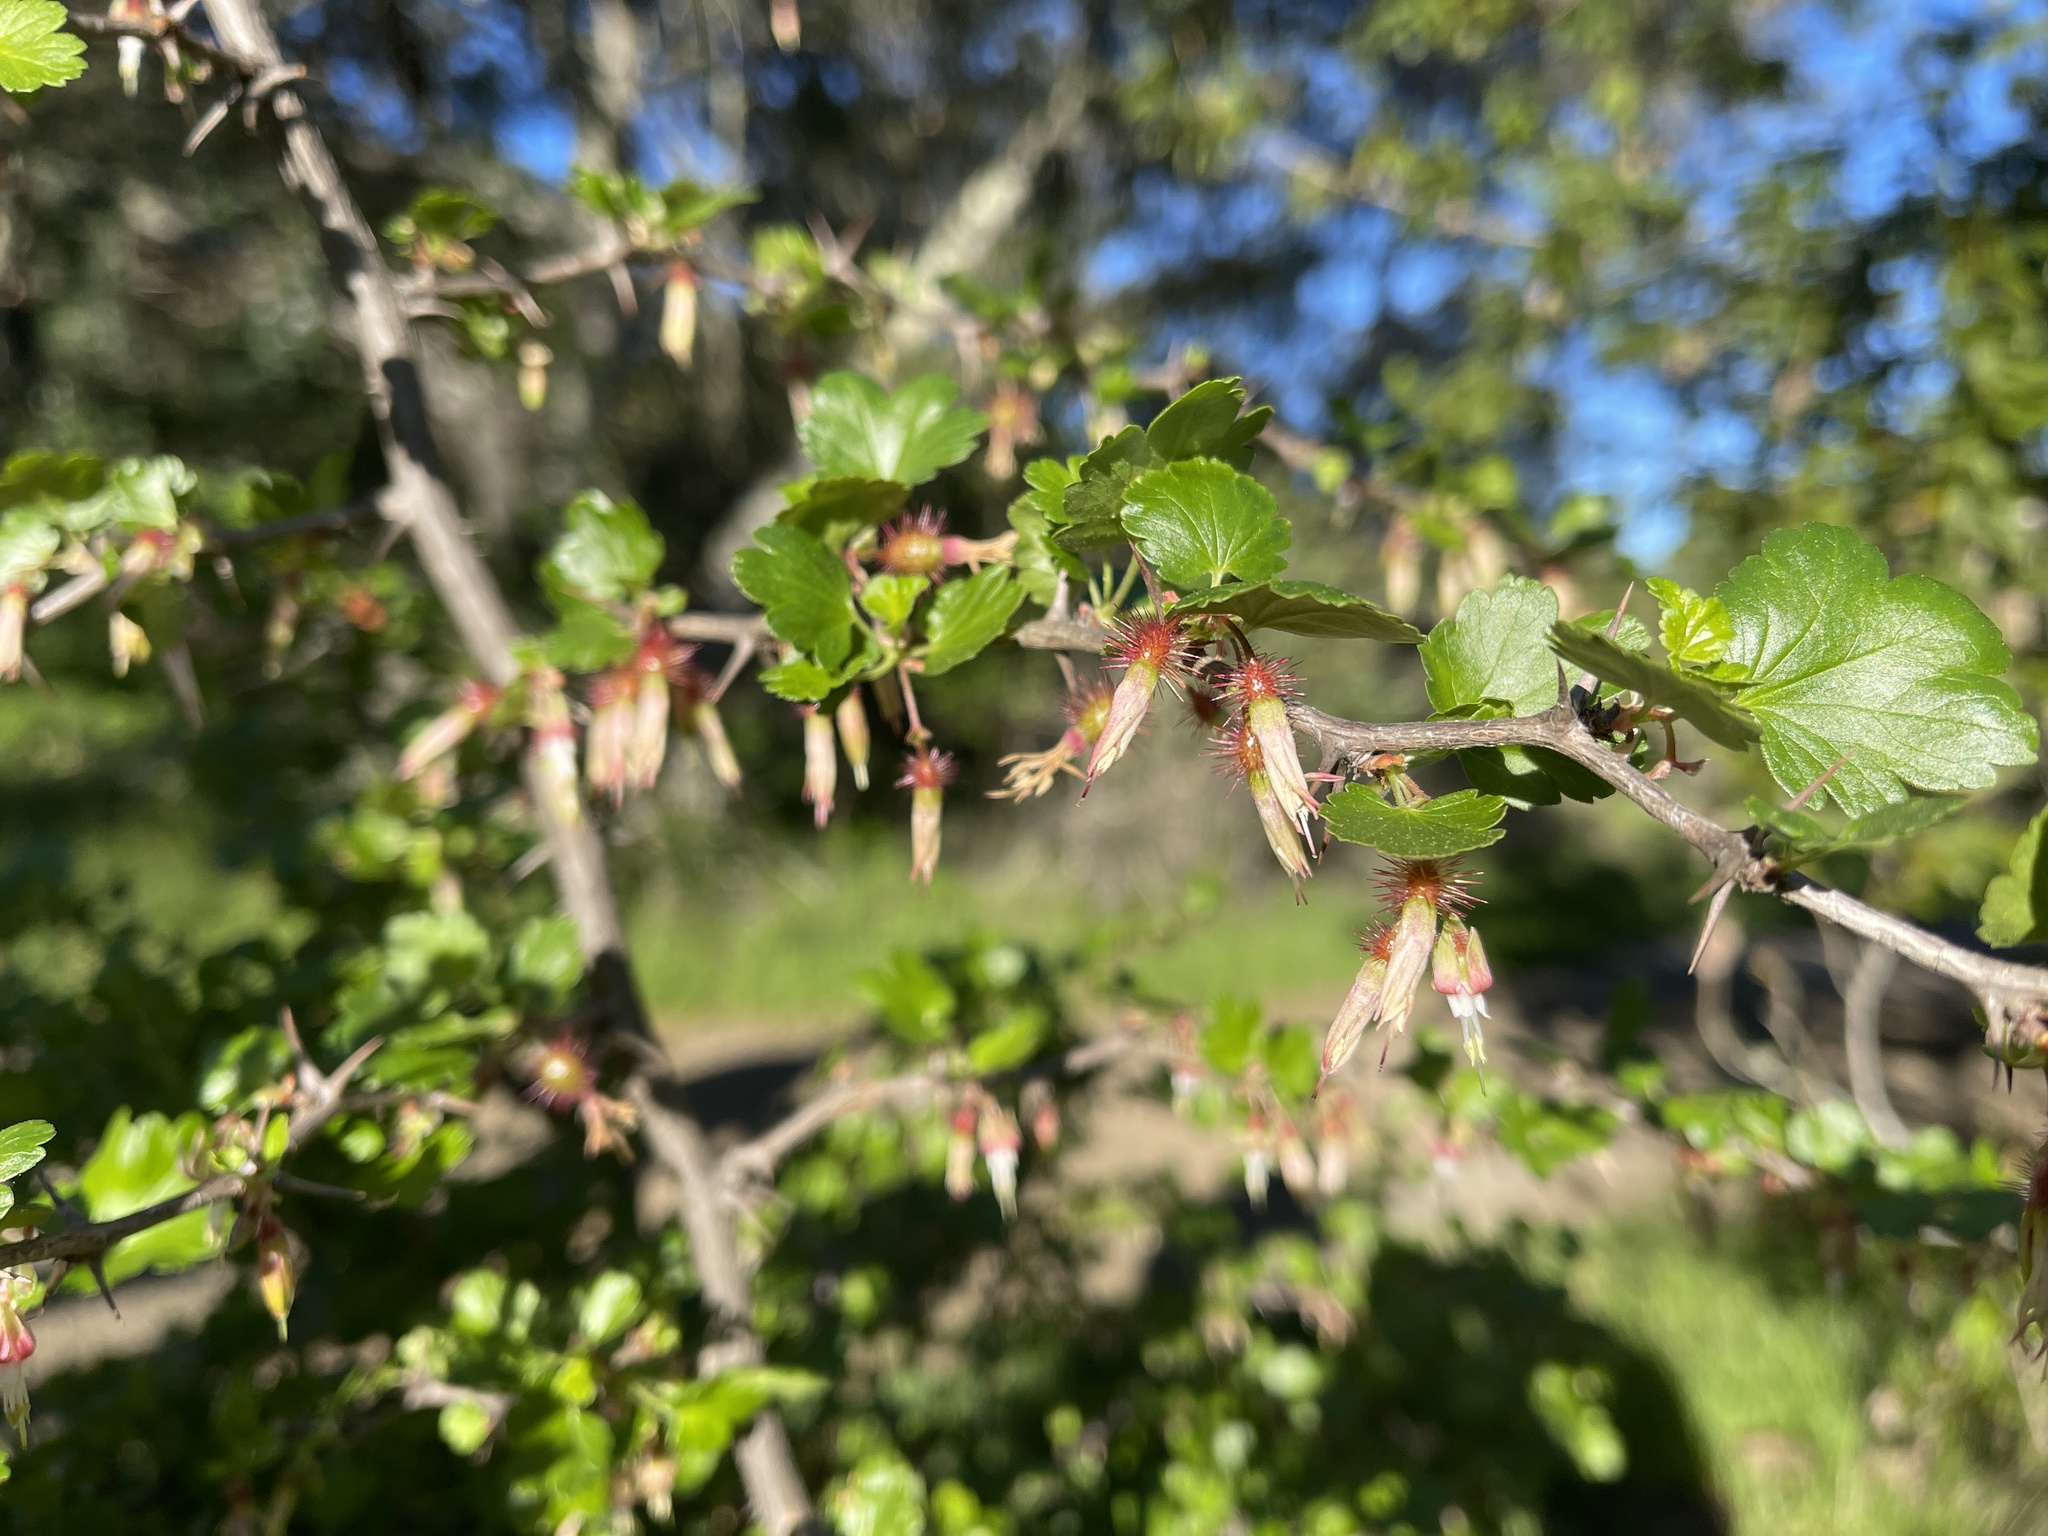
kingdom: Plantae
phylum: Tracheophyta
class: Magnoliopsida
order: Saxifragales
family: Grossulariaceae
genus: Ribes
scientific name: Ribes californicum
